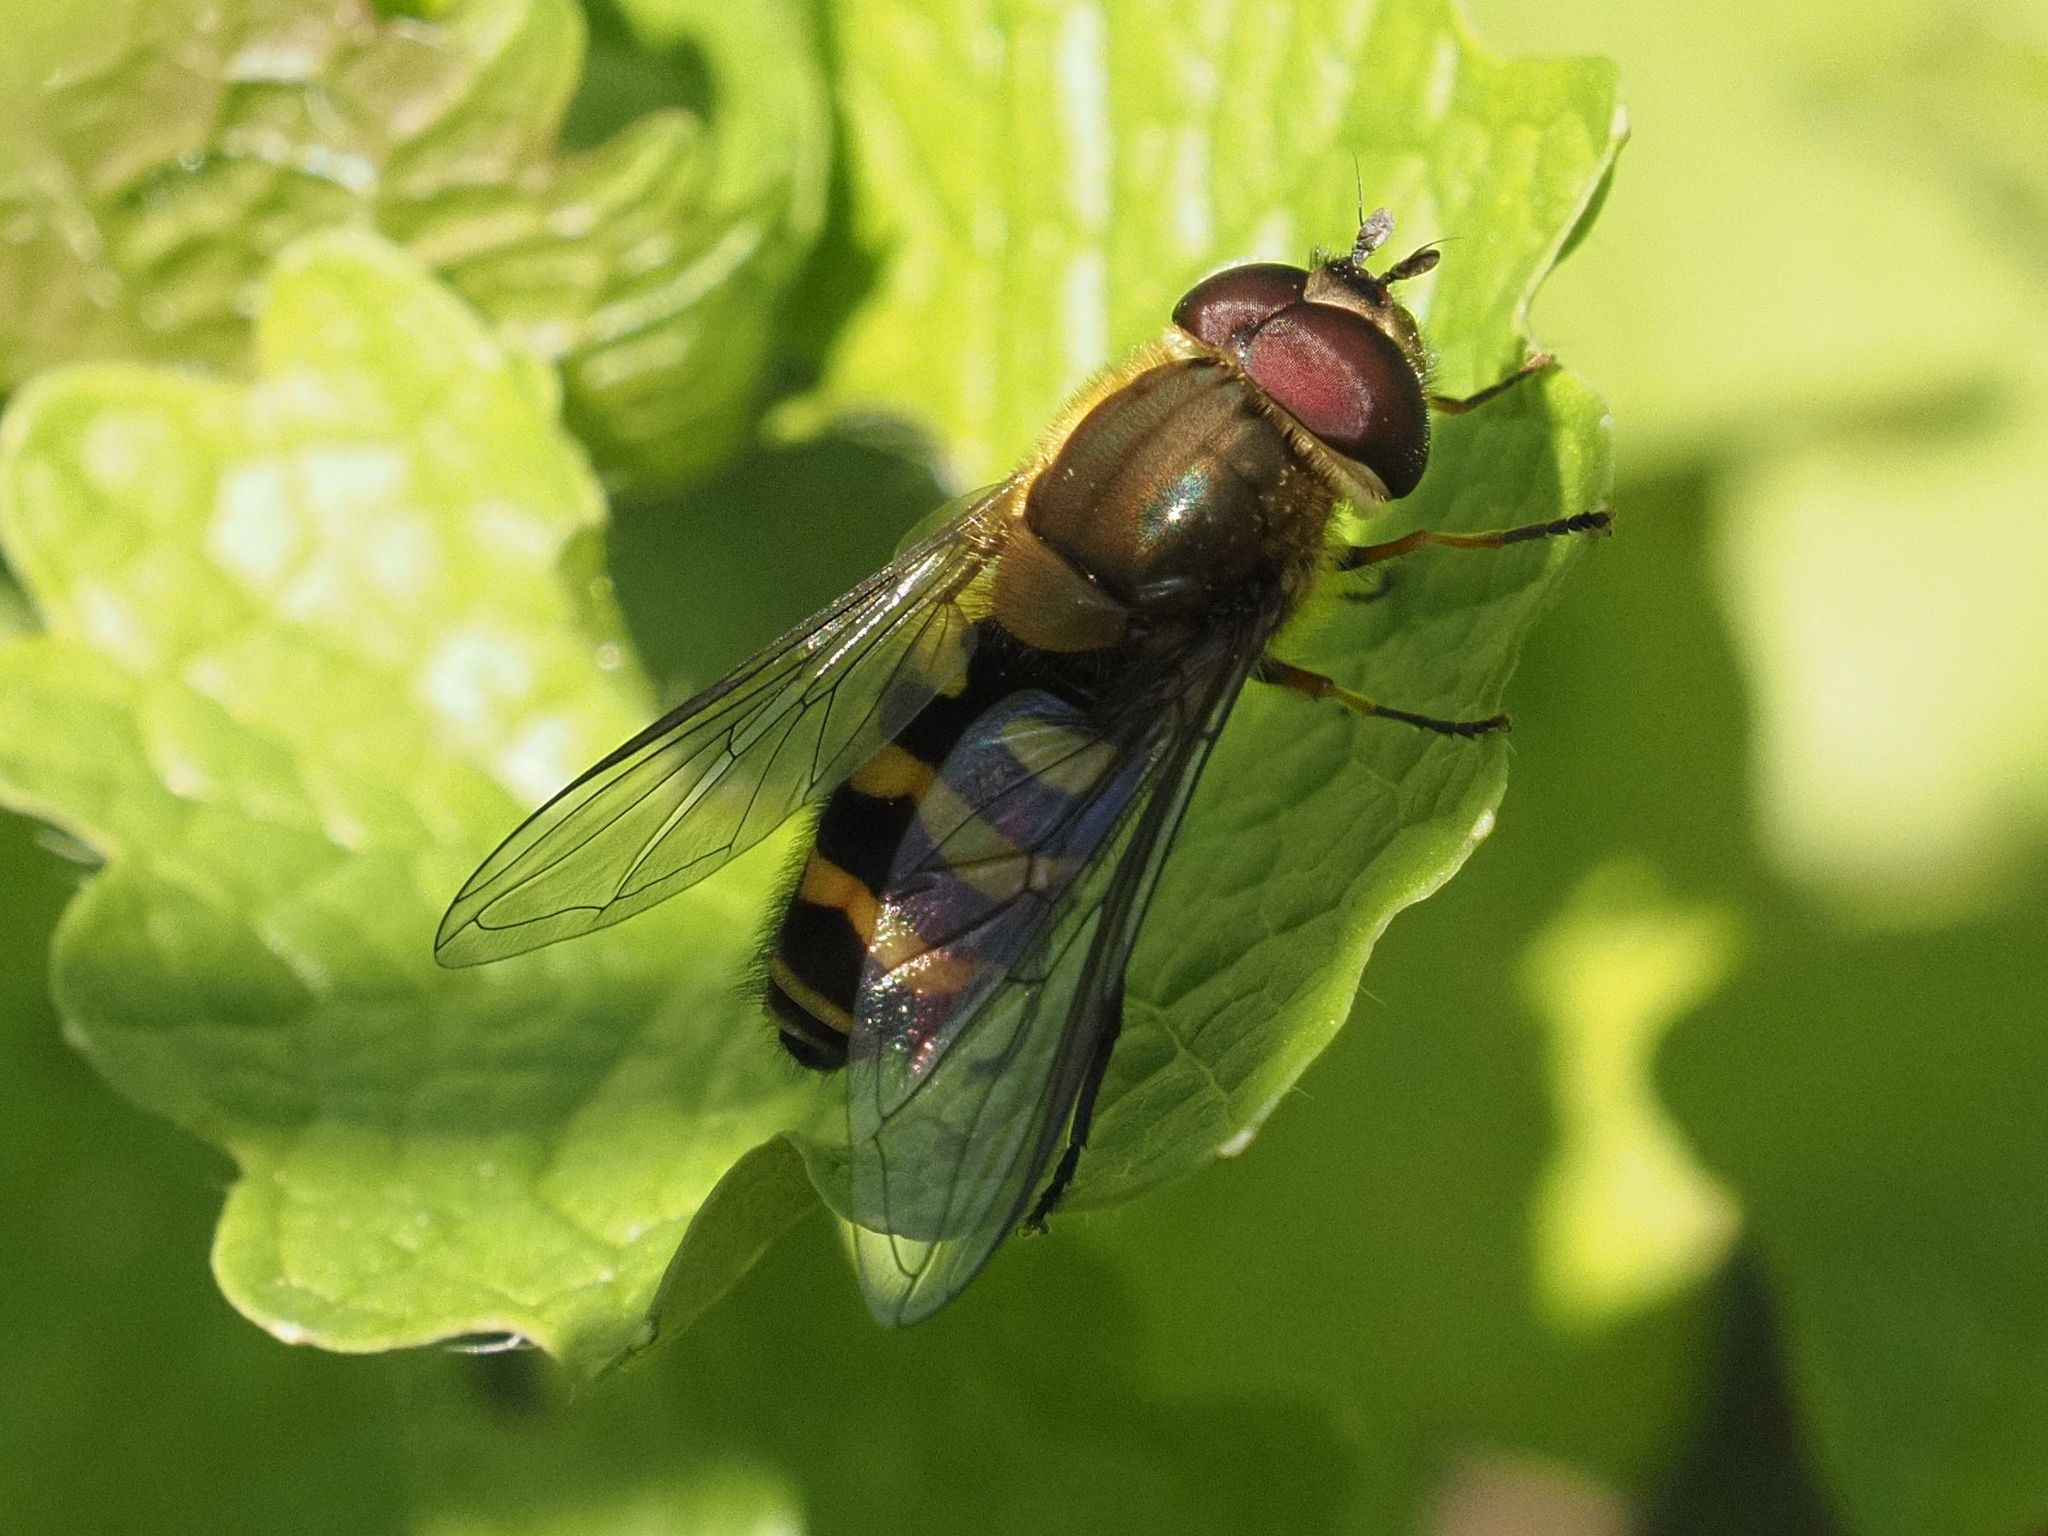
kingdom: Animalia
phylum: Arthropoda
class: Insecta
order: Diptera
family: Syrphidae
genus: Syrphus
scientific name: Syrphus torvus
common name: Hairy-eyed flower fly
